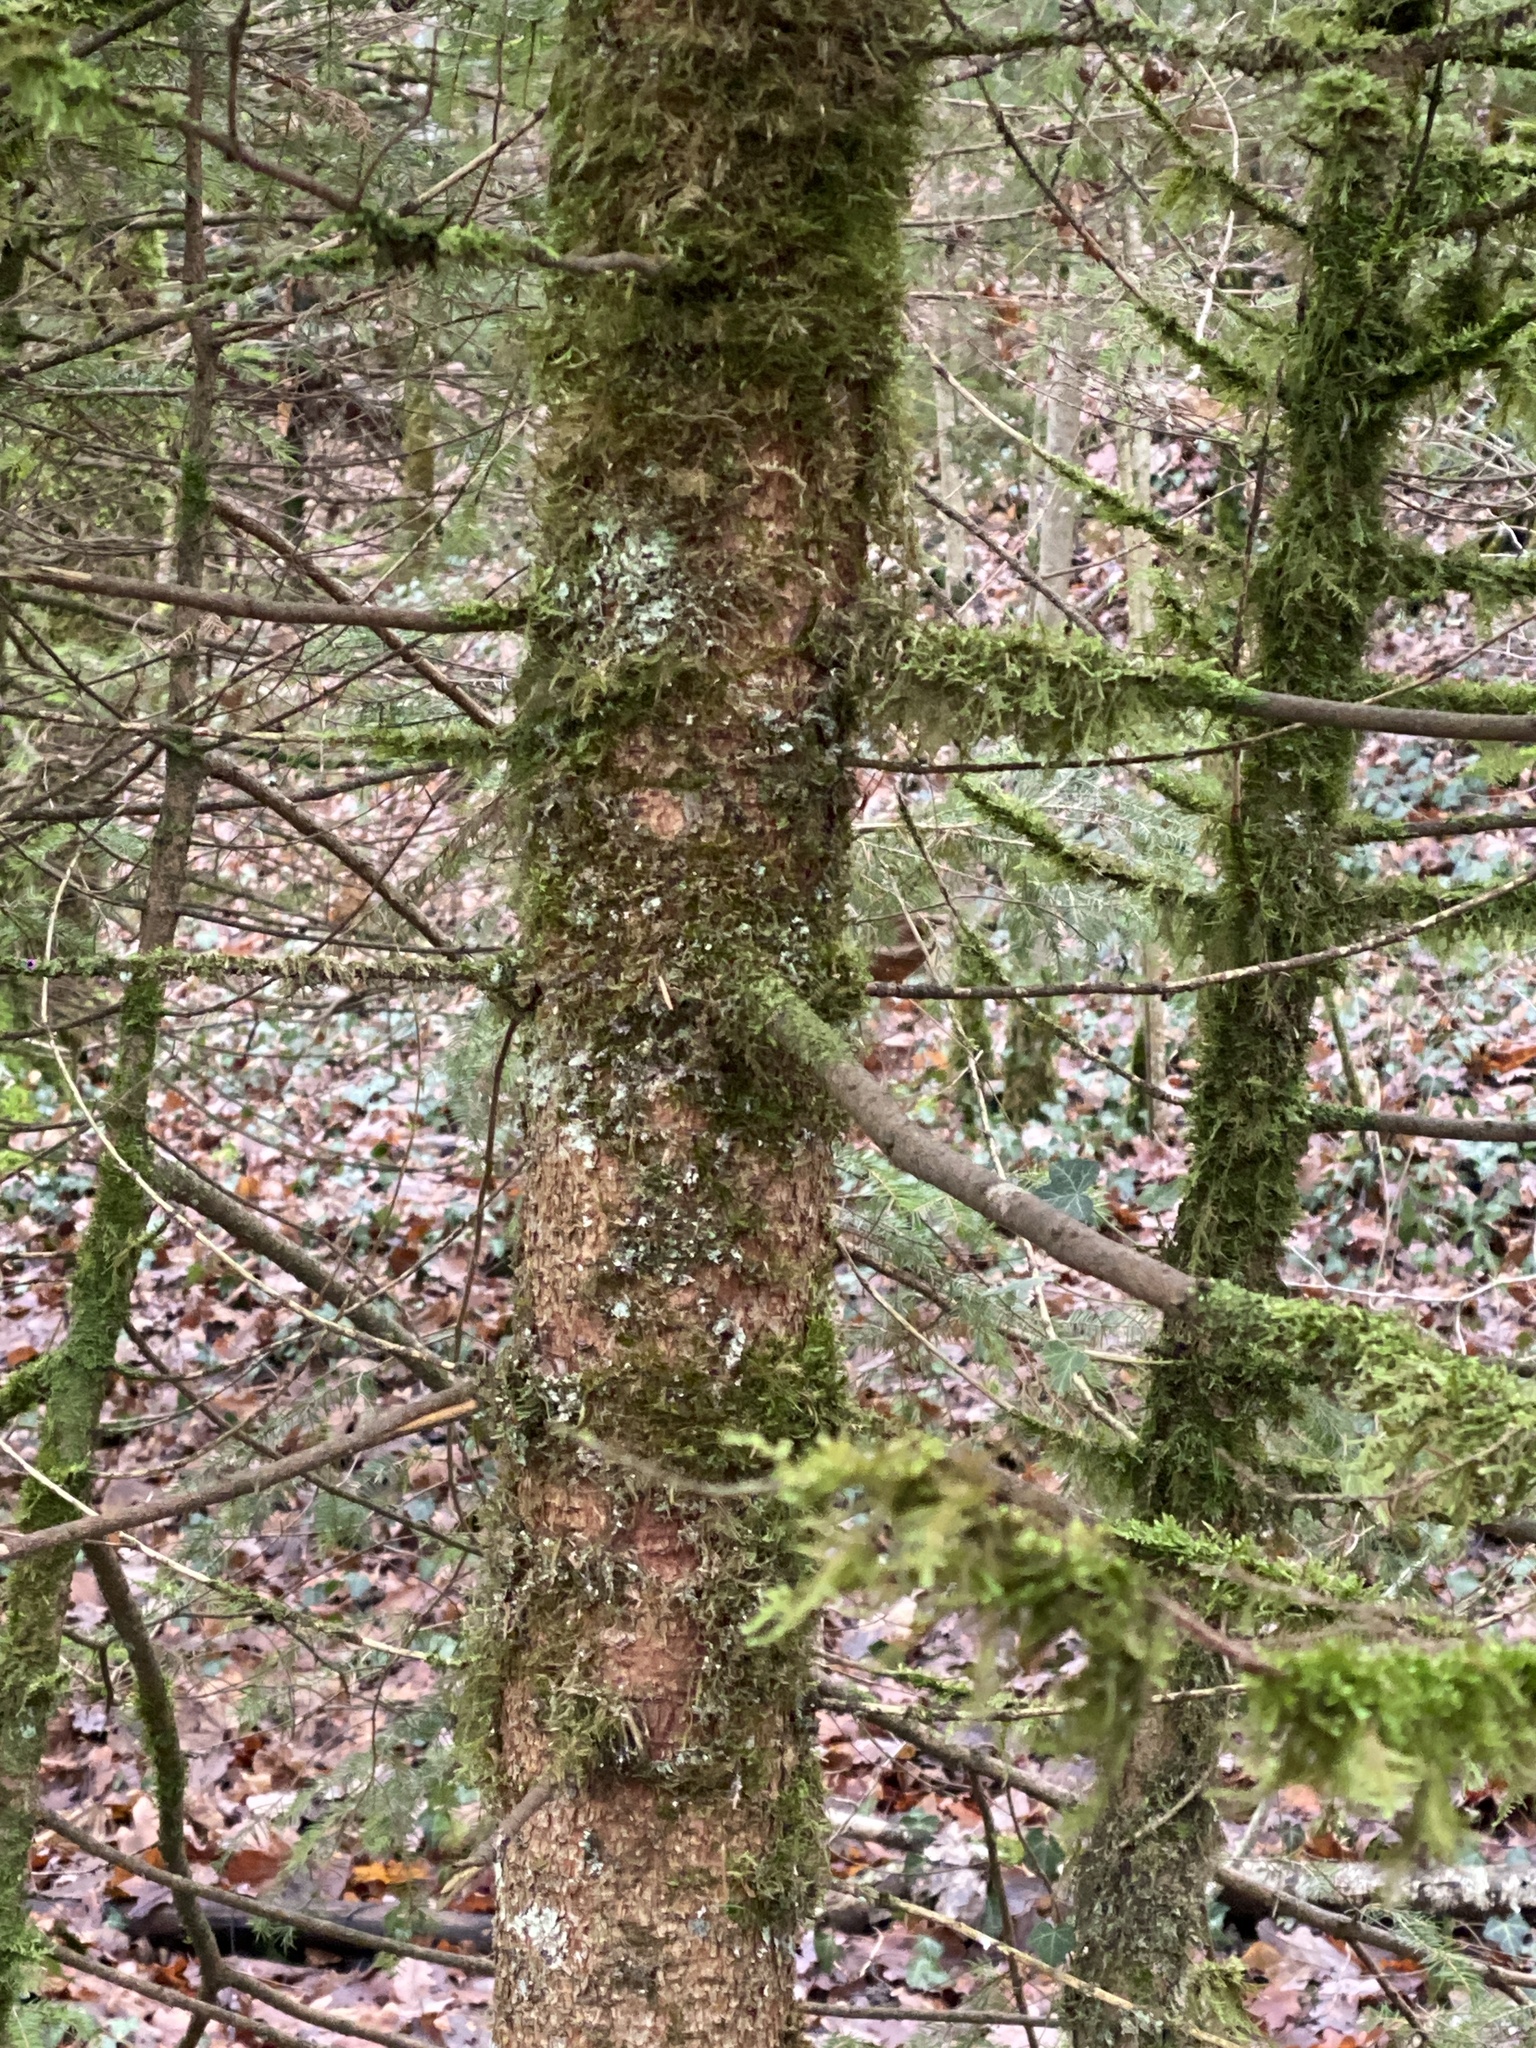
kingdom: Plantae
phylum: Tracheophyta
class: Pinopsida
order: Pinales
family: Pinaceae
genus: Picea
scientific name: Picea abies
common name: Norway spruce
